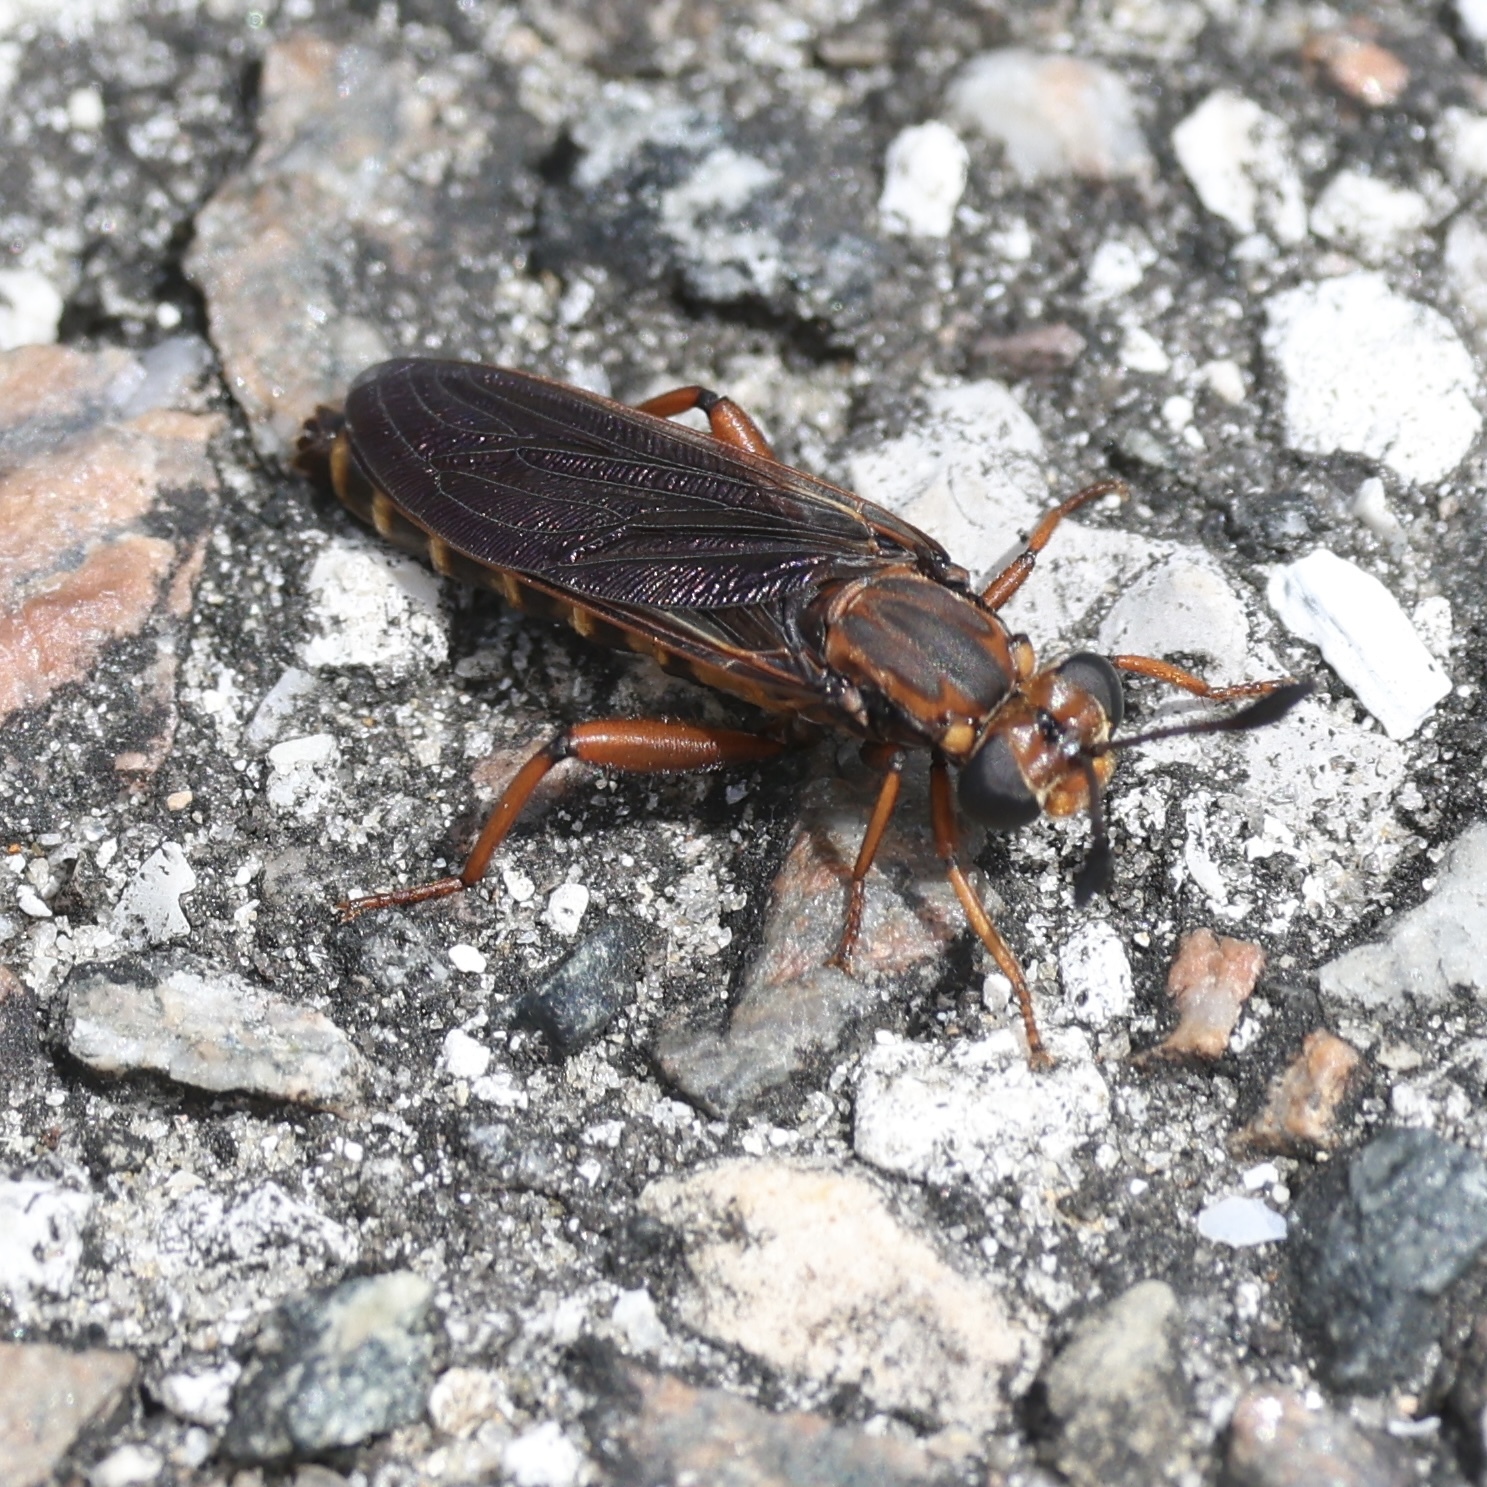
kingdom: Animalia
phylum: Arthropoda
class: Insecta
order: Diptera
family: Mydidae
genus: Phyllomydas
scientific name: Phyllomydas parvulus
